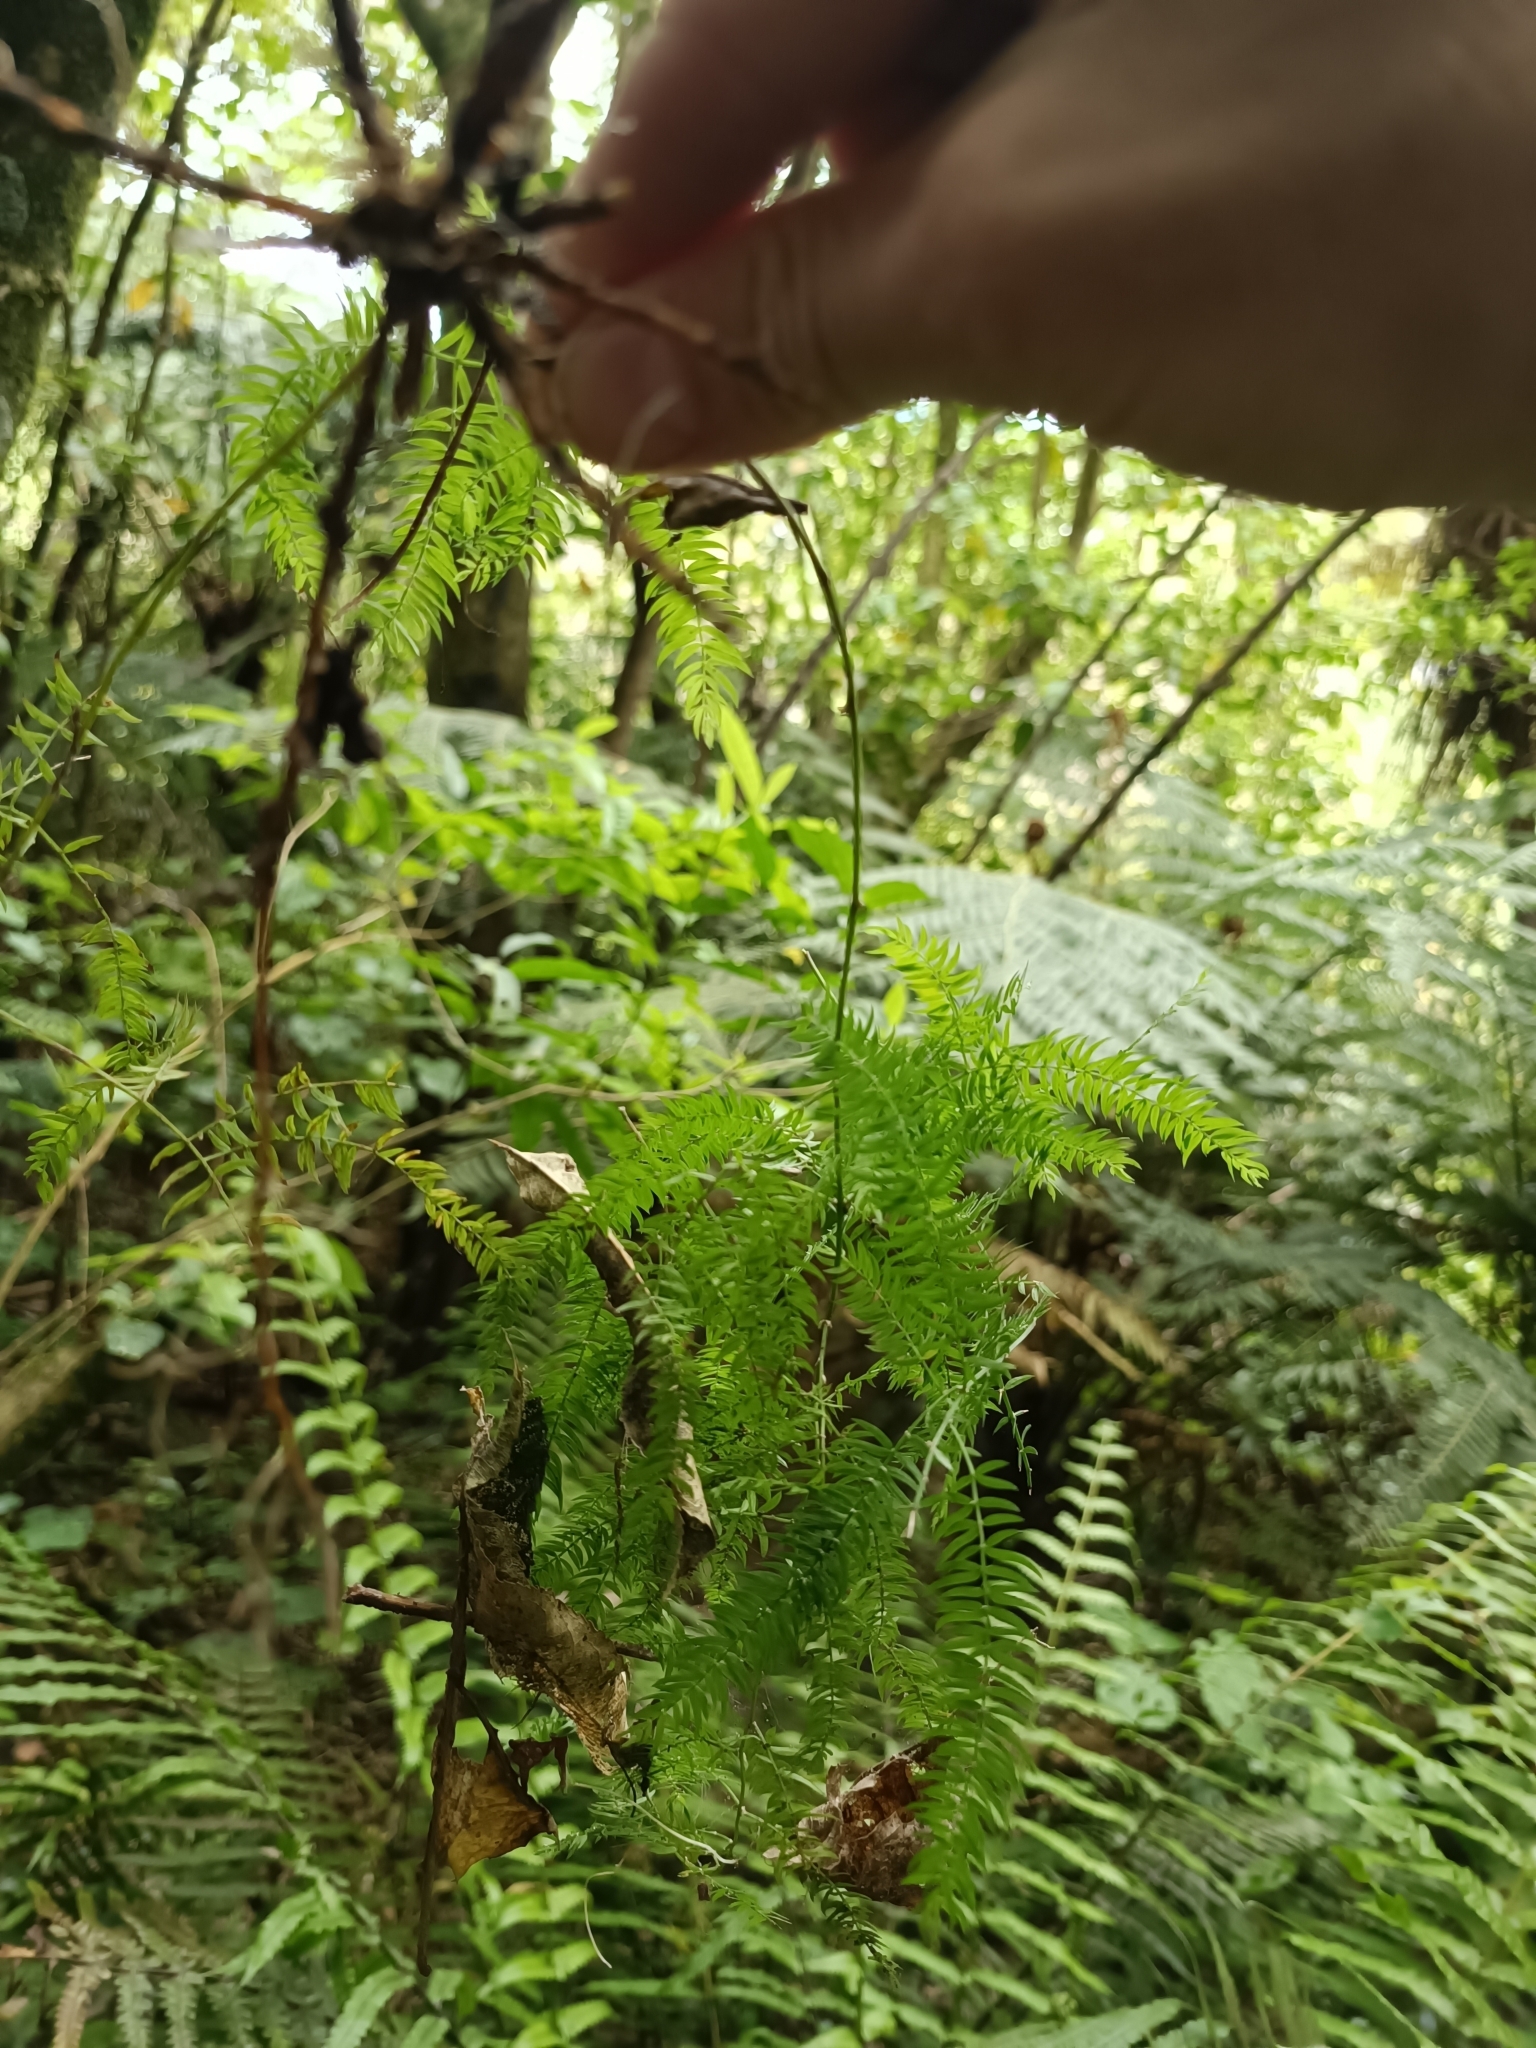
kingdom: Plantae
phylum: Tracheophyta
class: Liliopsida
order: Asparagales
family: Asparagaceae
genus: Asparagus
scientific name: Asparagus scandens
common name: Asparagus-fern
